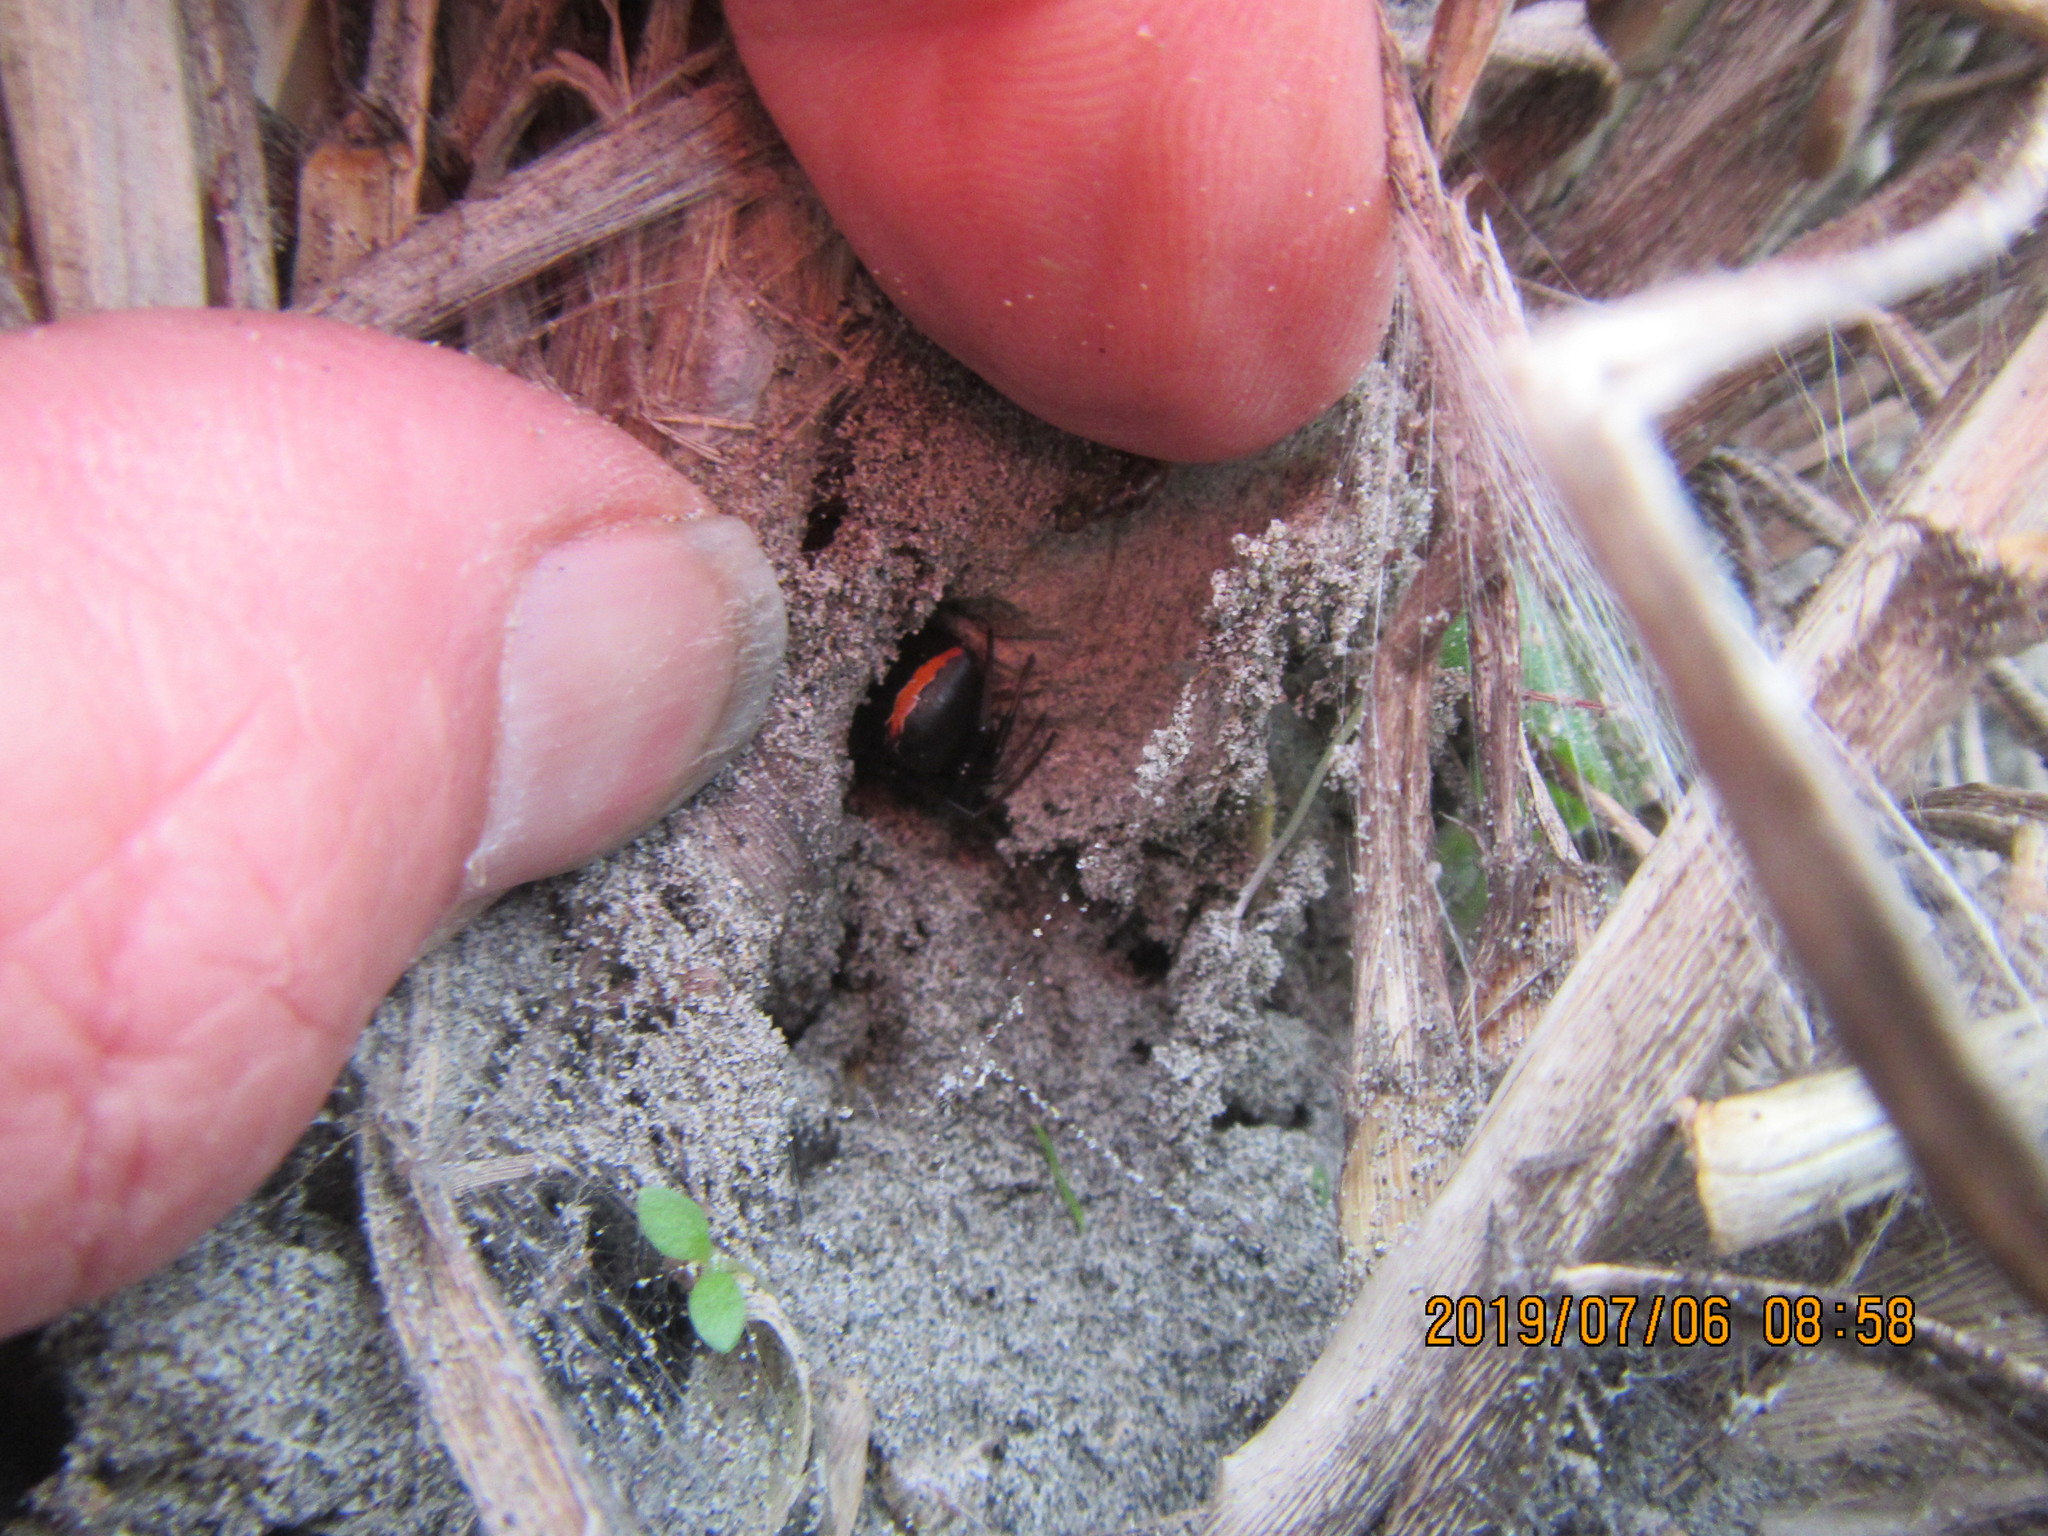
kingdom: Animalia
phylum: Arthropoda
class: Arachnida
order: Araneae
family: Theridiidae
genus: Latrodectus
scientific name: Latrodectus katipo
